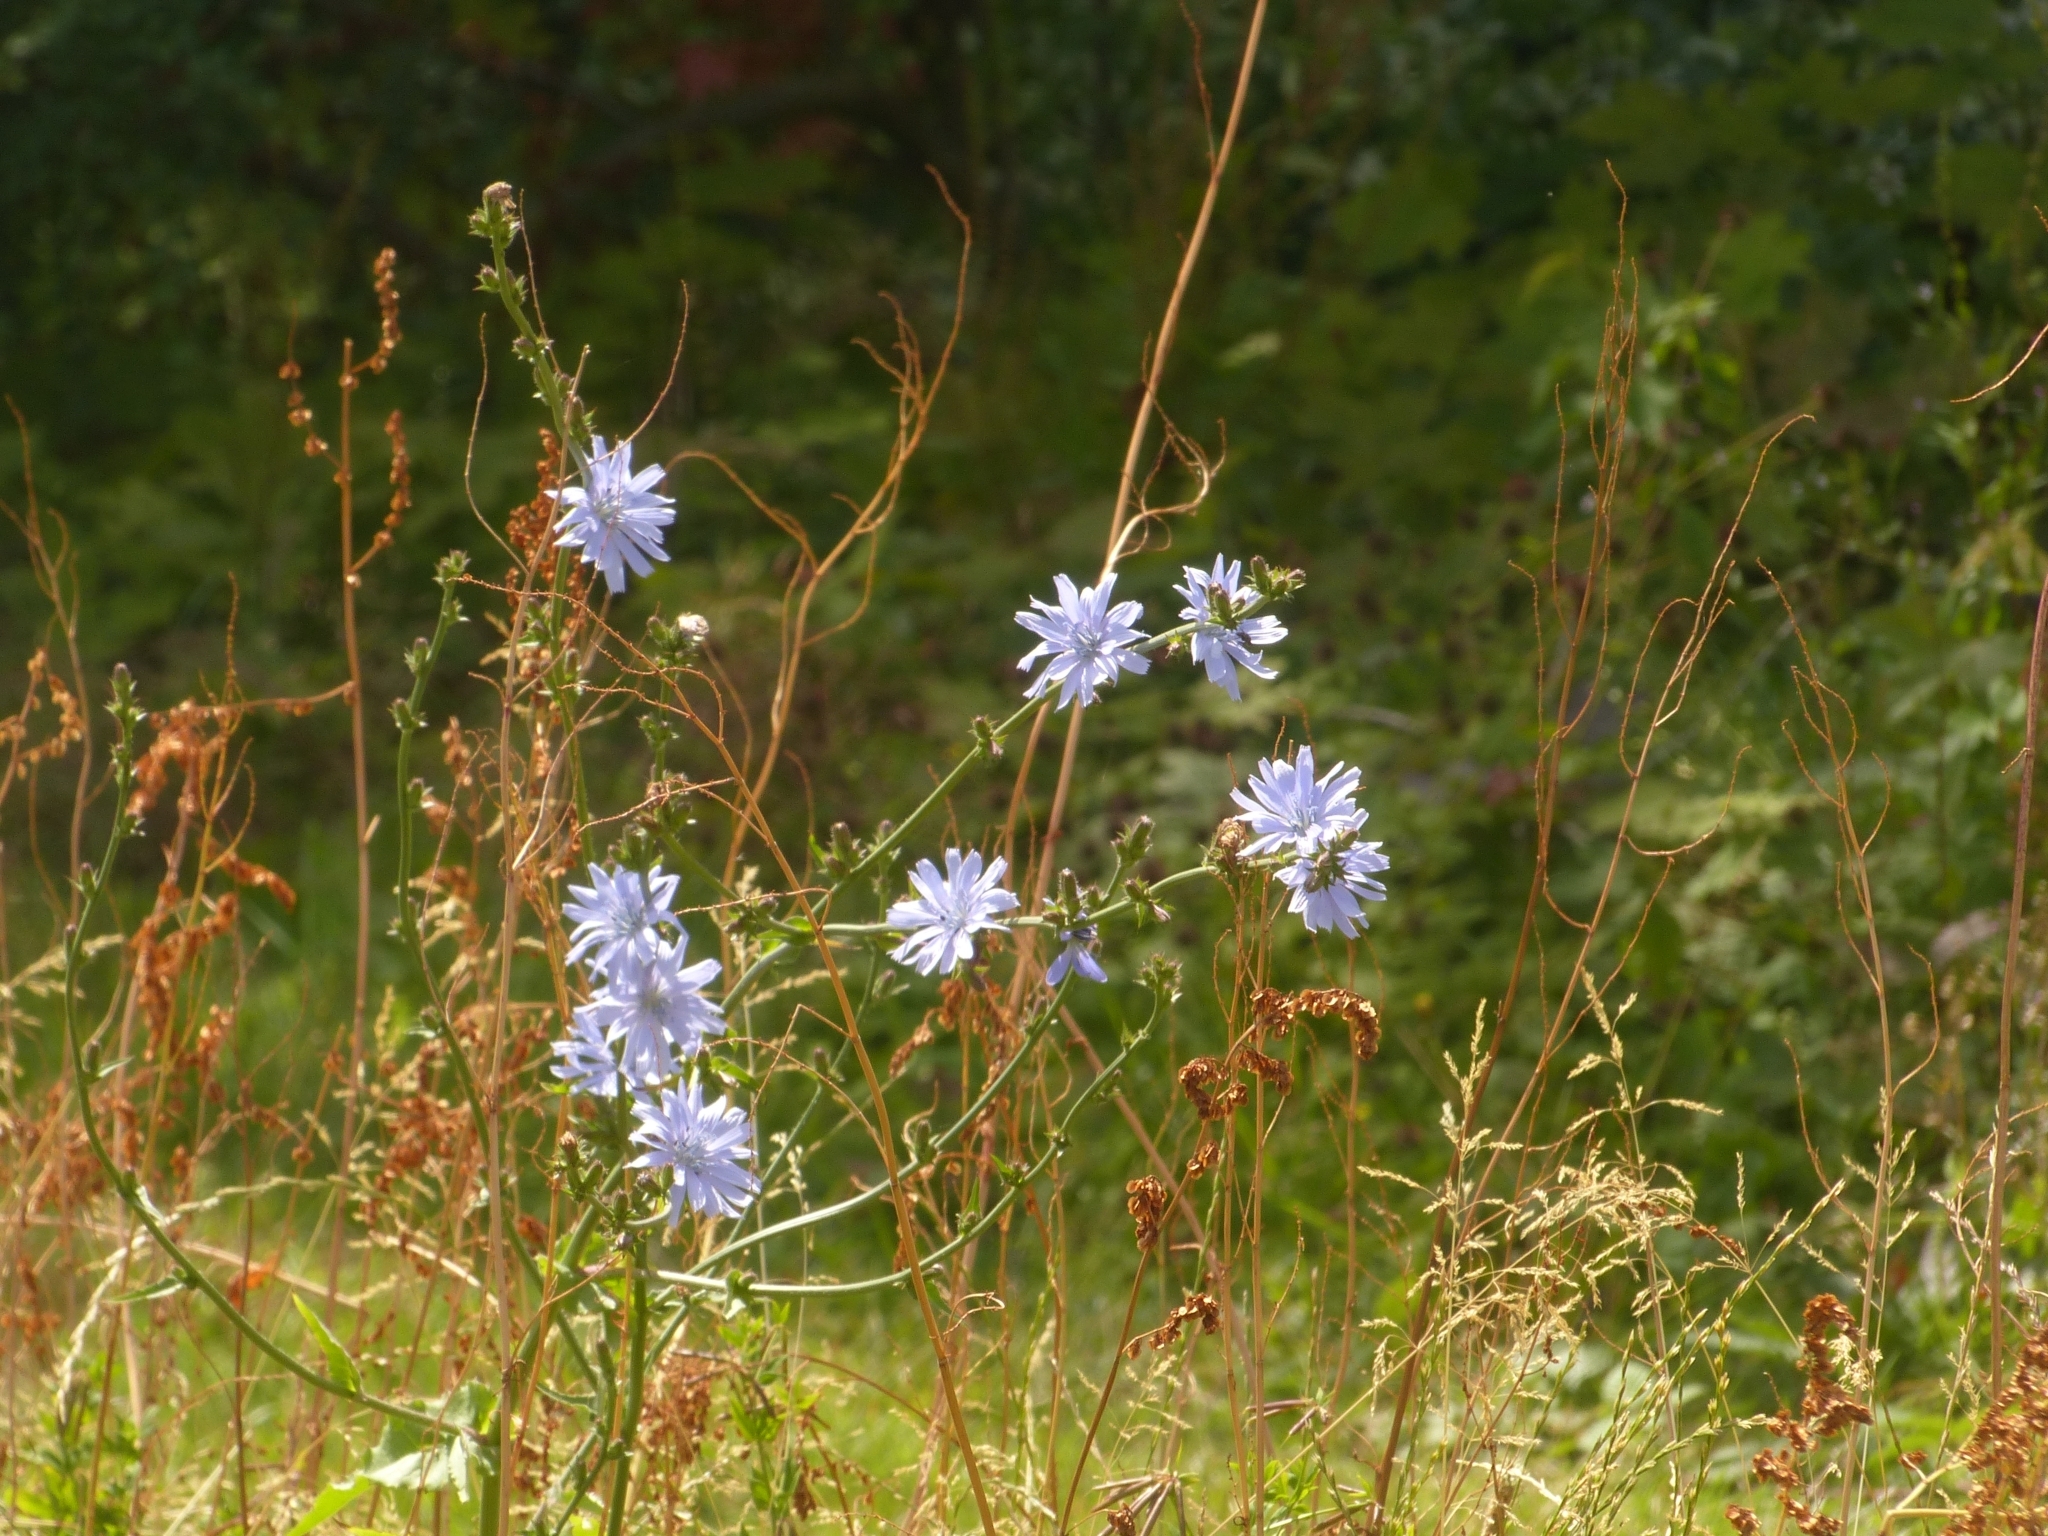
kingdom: Plantae
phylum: Tracheophyta
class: Magnoliopsida
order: Asterales
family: Asteraceae
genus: Cichorium
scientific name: Cichorium intybus
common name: Chicory
